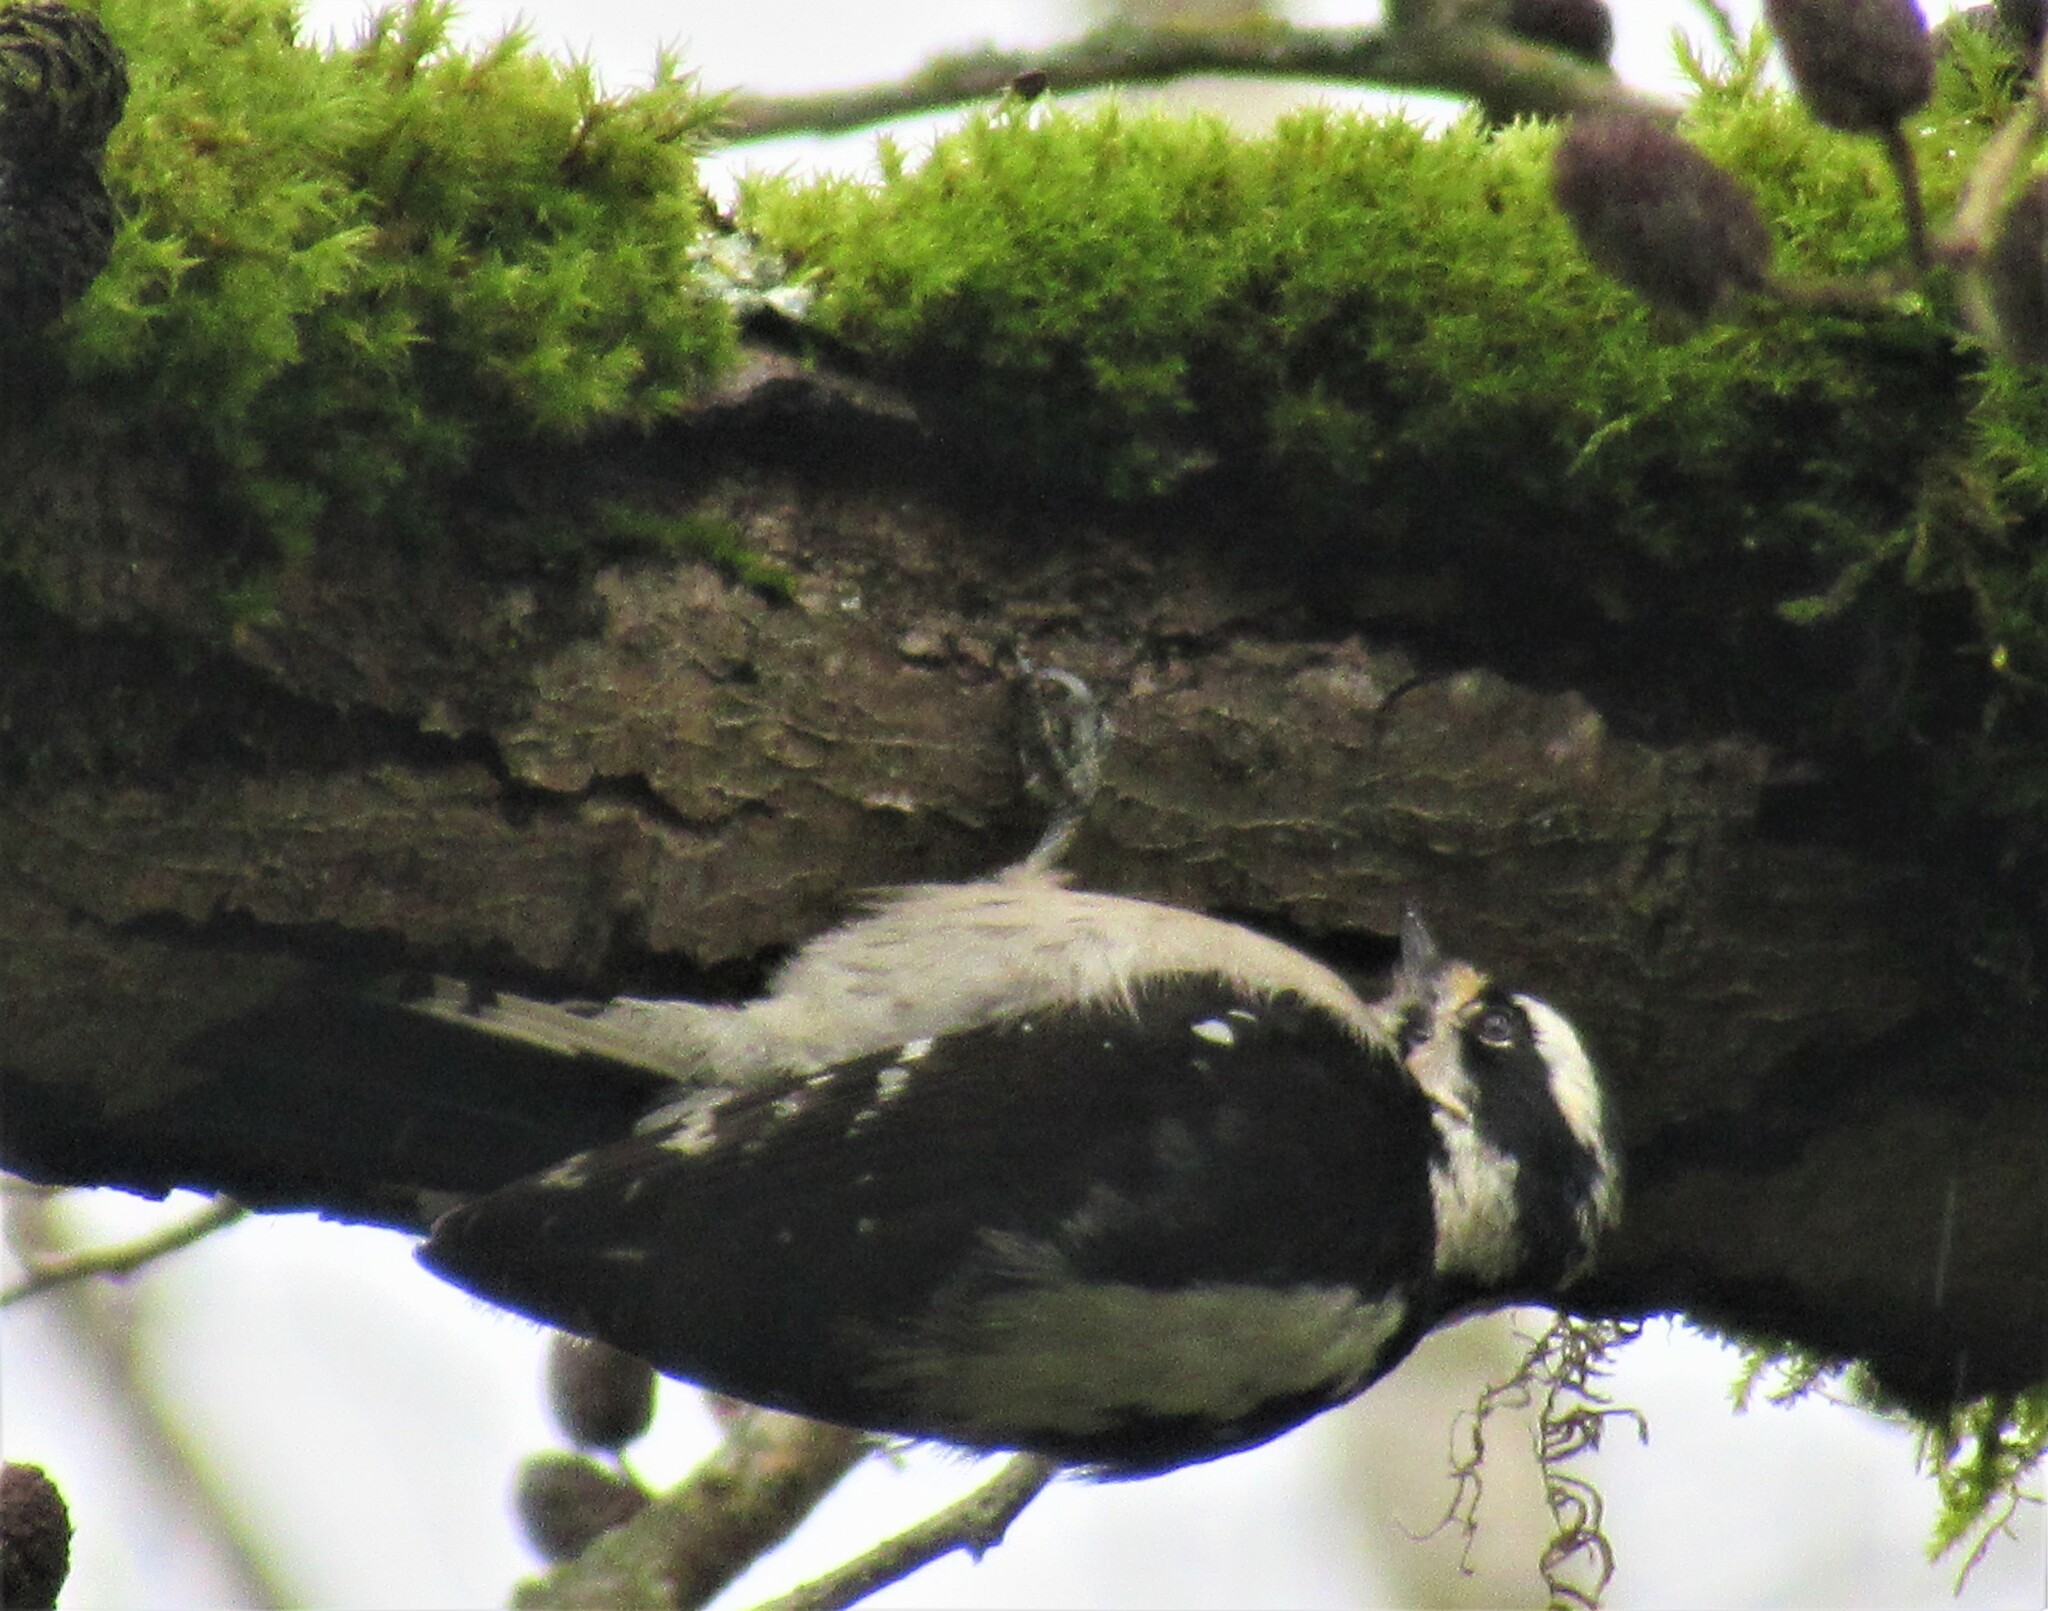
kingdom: Animalia
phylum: Chordata
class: Aves
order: Piciformes
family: Picidae
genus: Dryobates
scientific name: Dryobates pubescens
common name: Downy woodpecker
